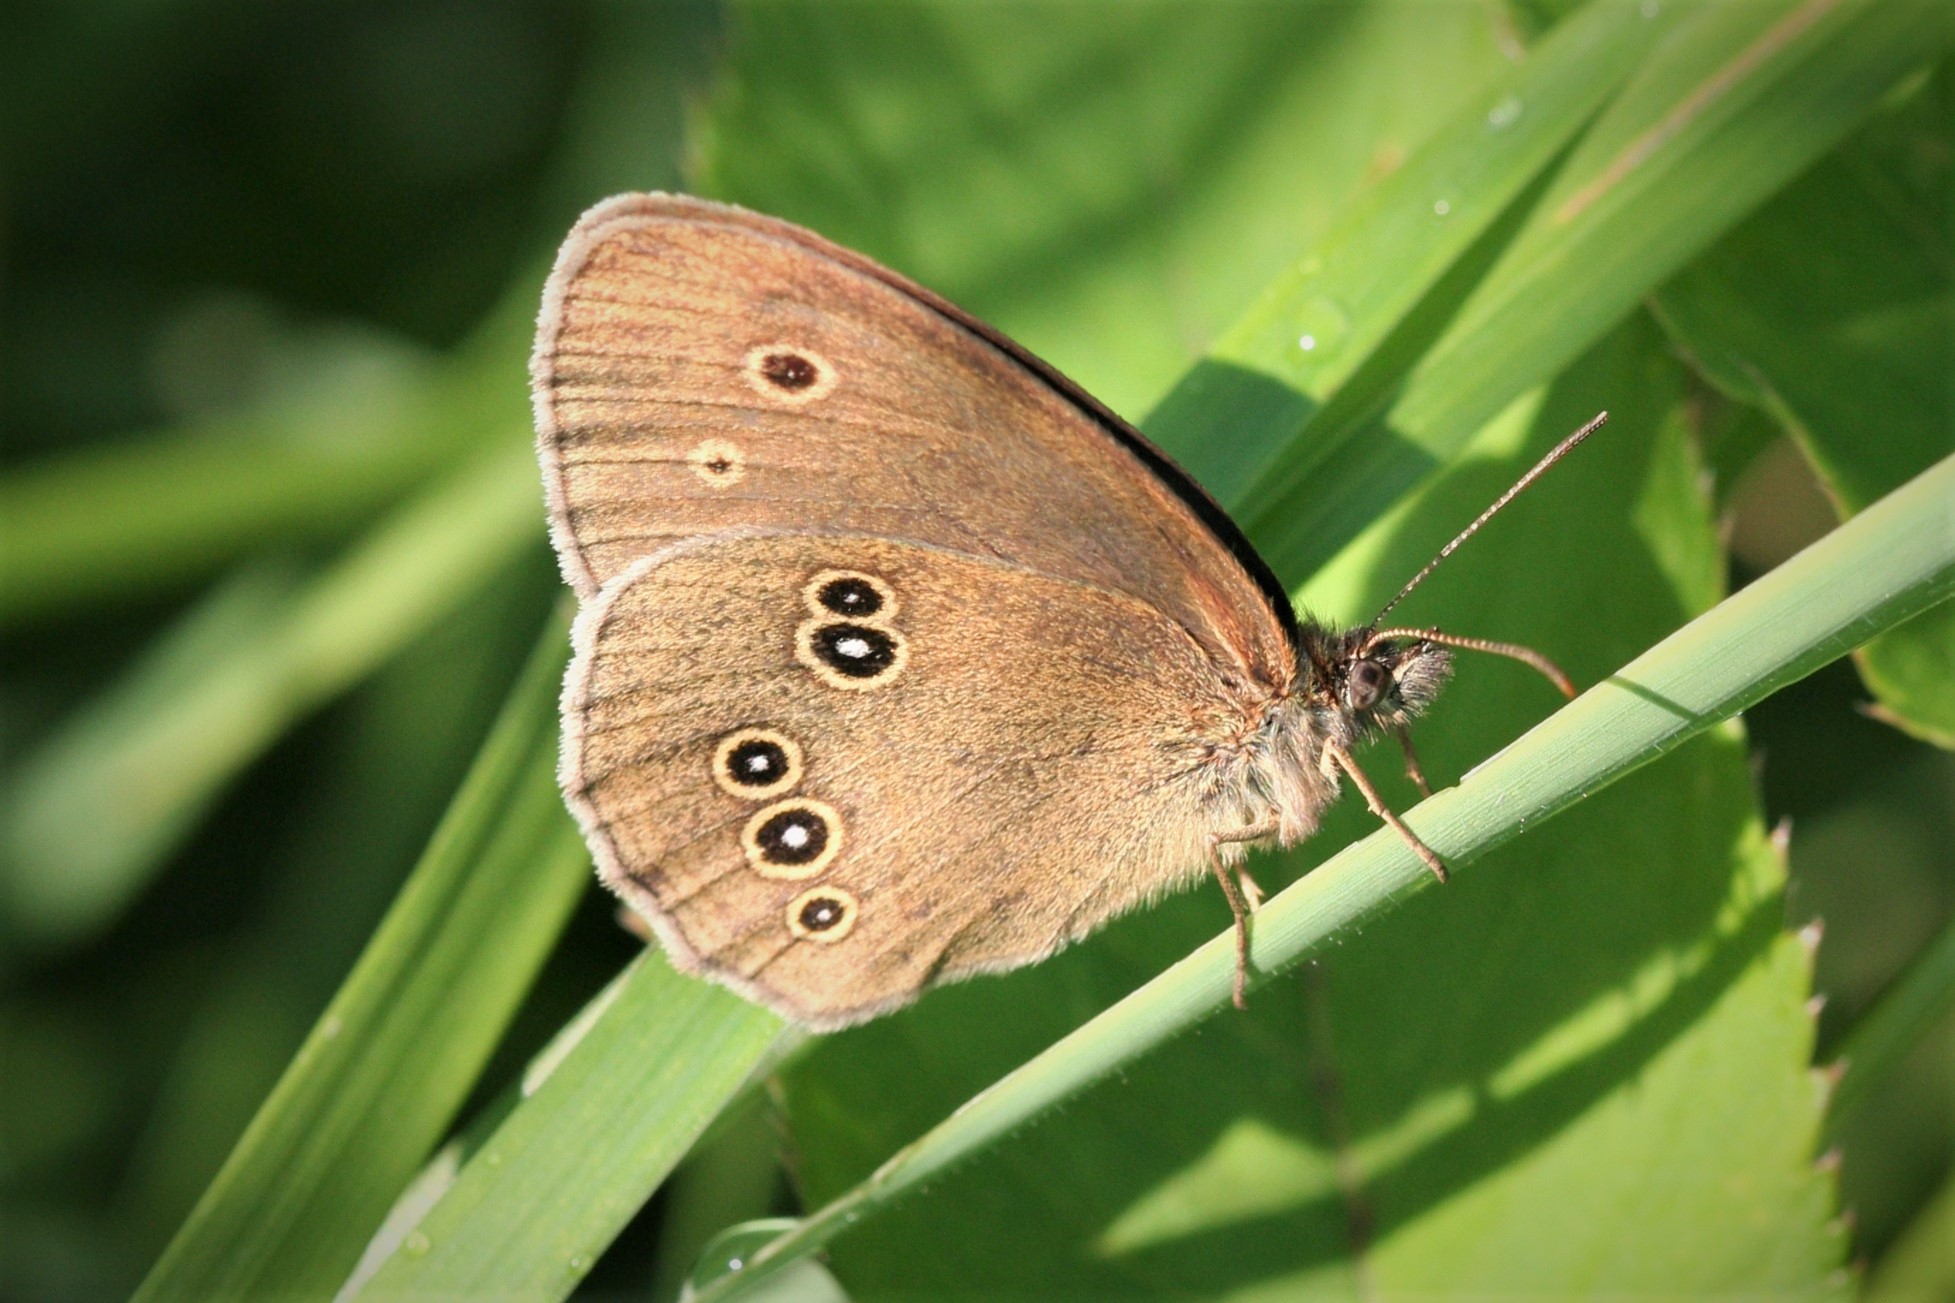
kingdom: Animalia
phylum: Arthropoda
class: Insecta
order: Lepidoptera
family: Nymphalidae
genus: Aphantopus
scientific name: Aphantopus hyperantus
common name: Ringlet
